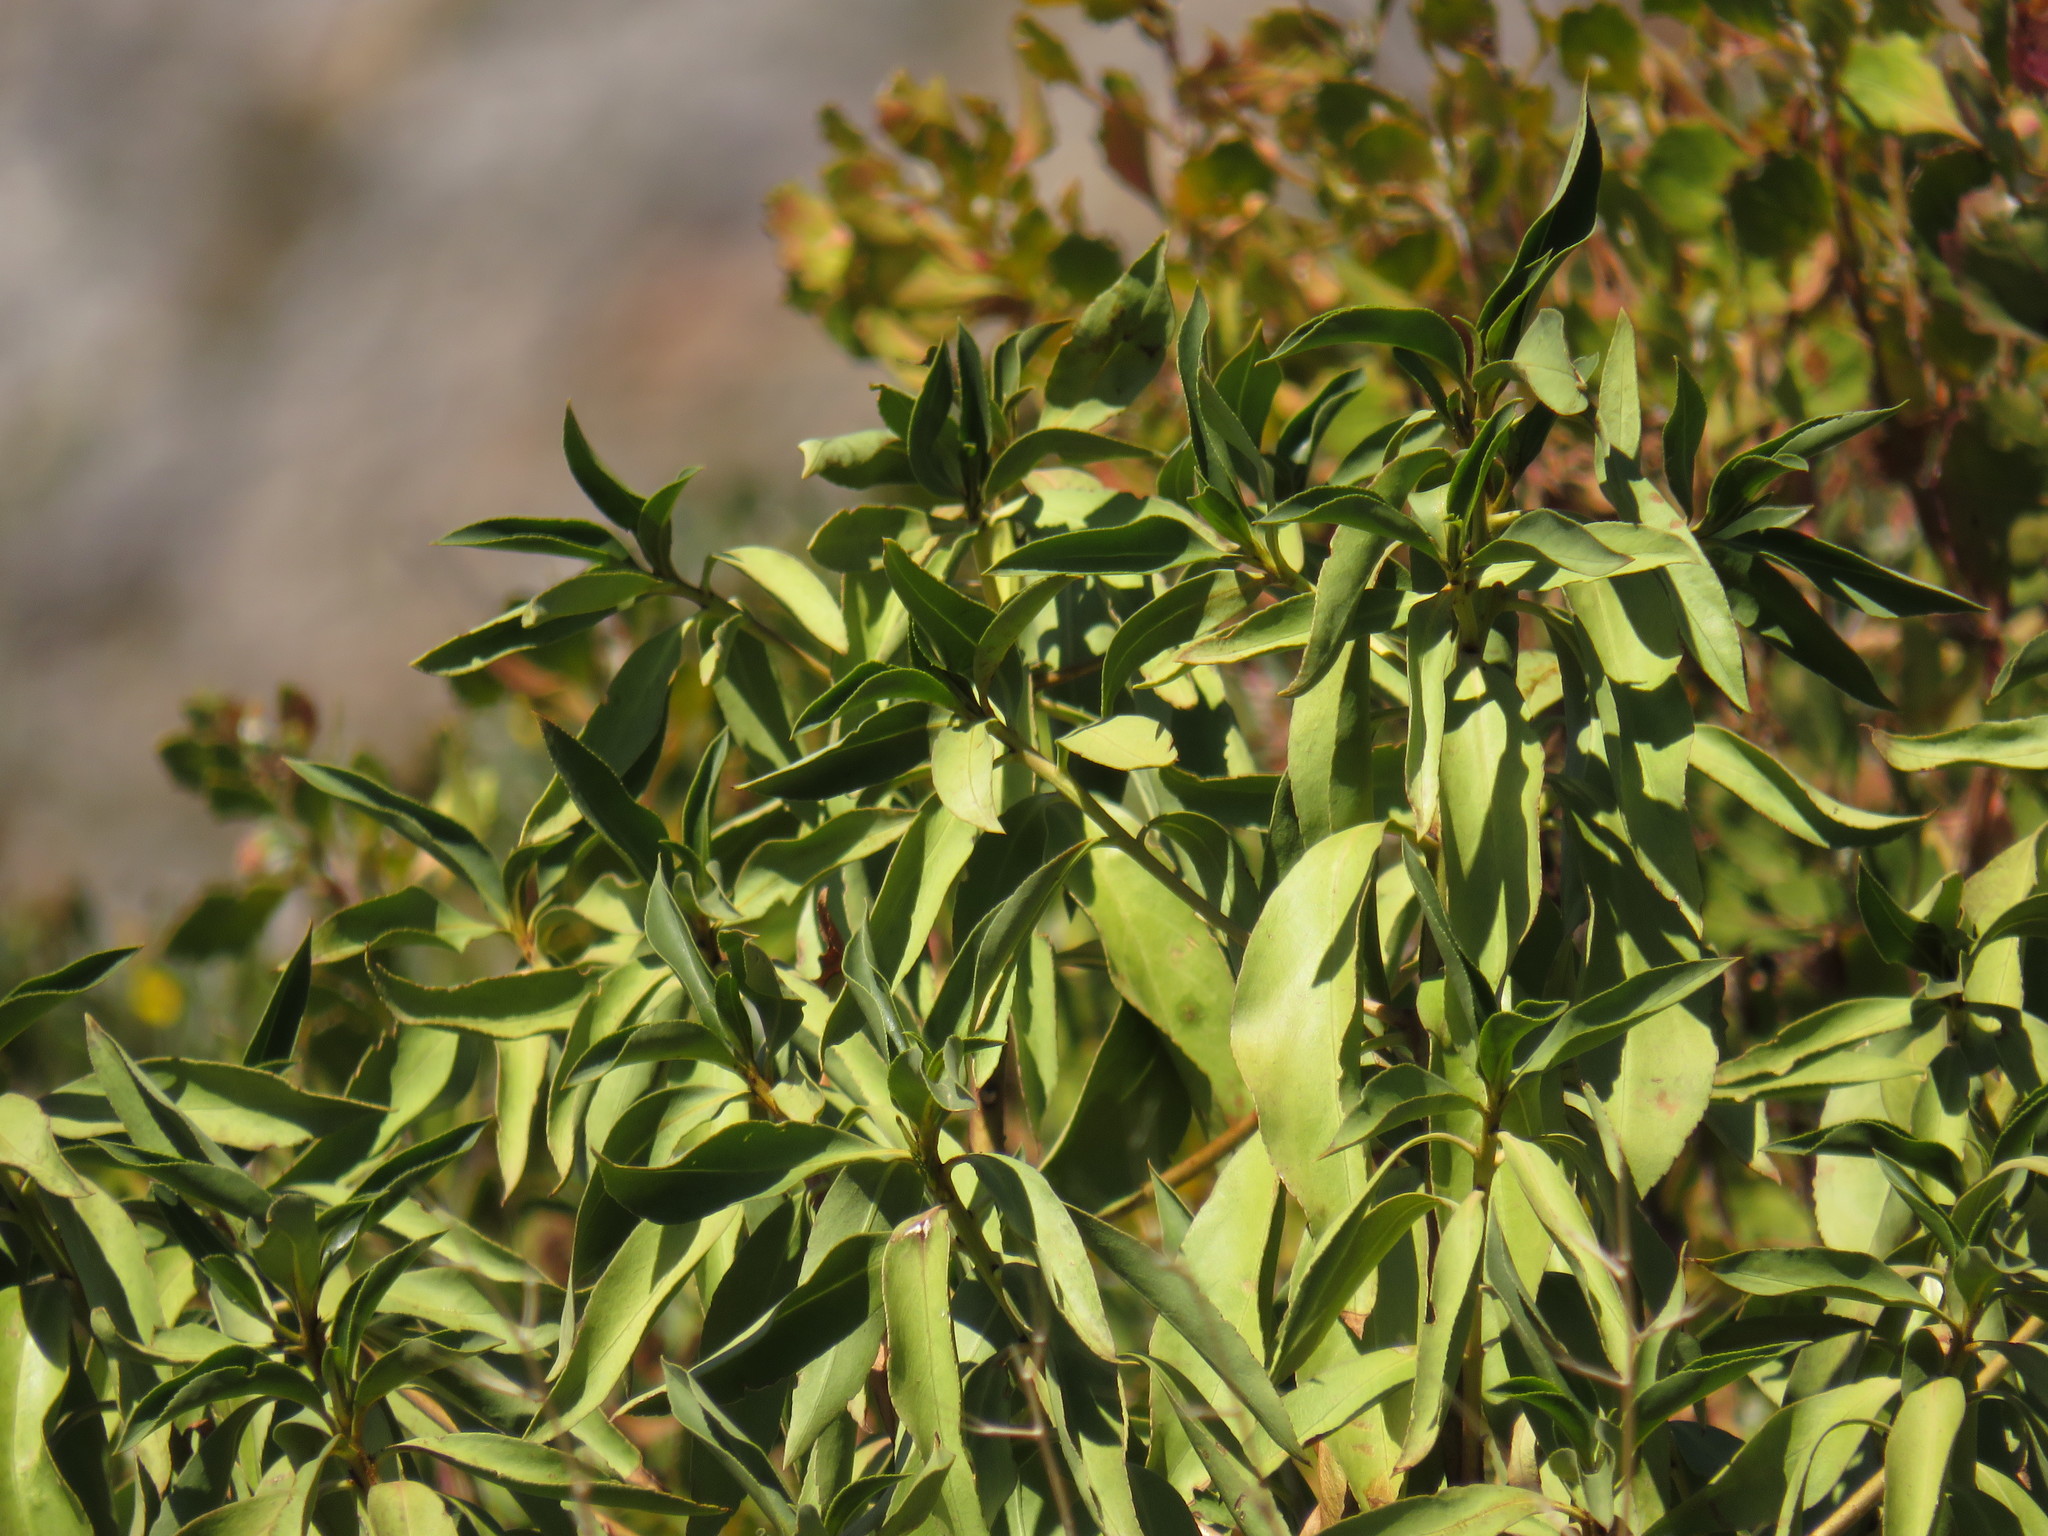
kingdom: Plantae
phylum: Tracheophyta
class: Magnoliopsida
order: Lamiales
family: Scrophulariaceae
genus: Myoporum
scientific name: Myoporum insulare
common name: Common boobialla
